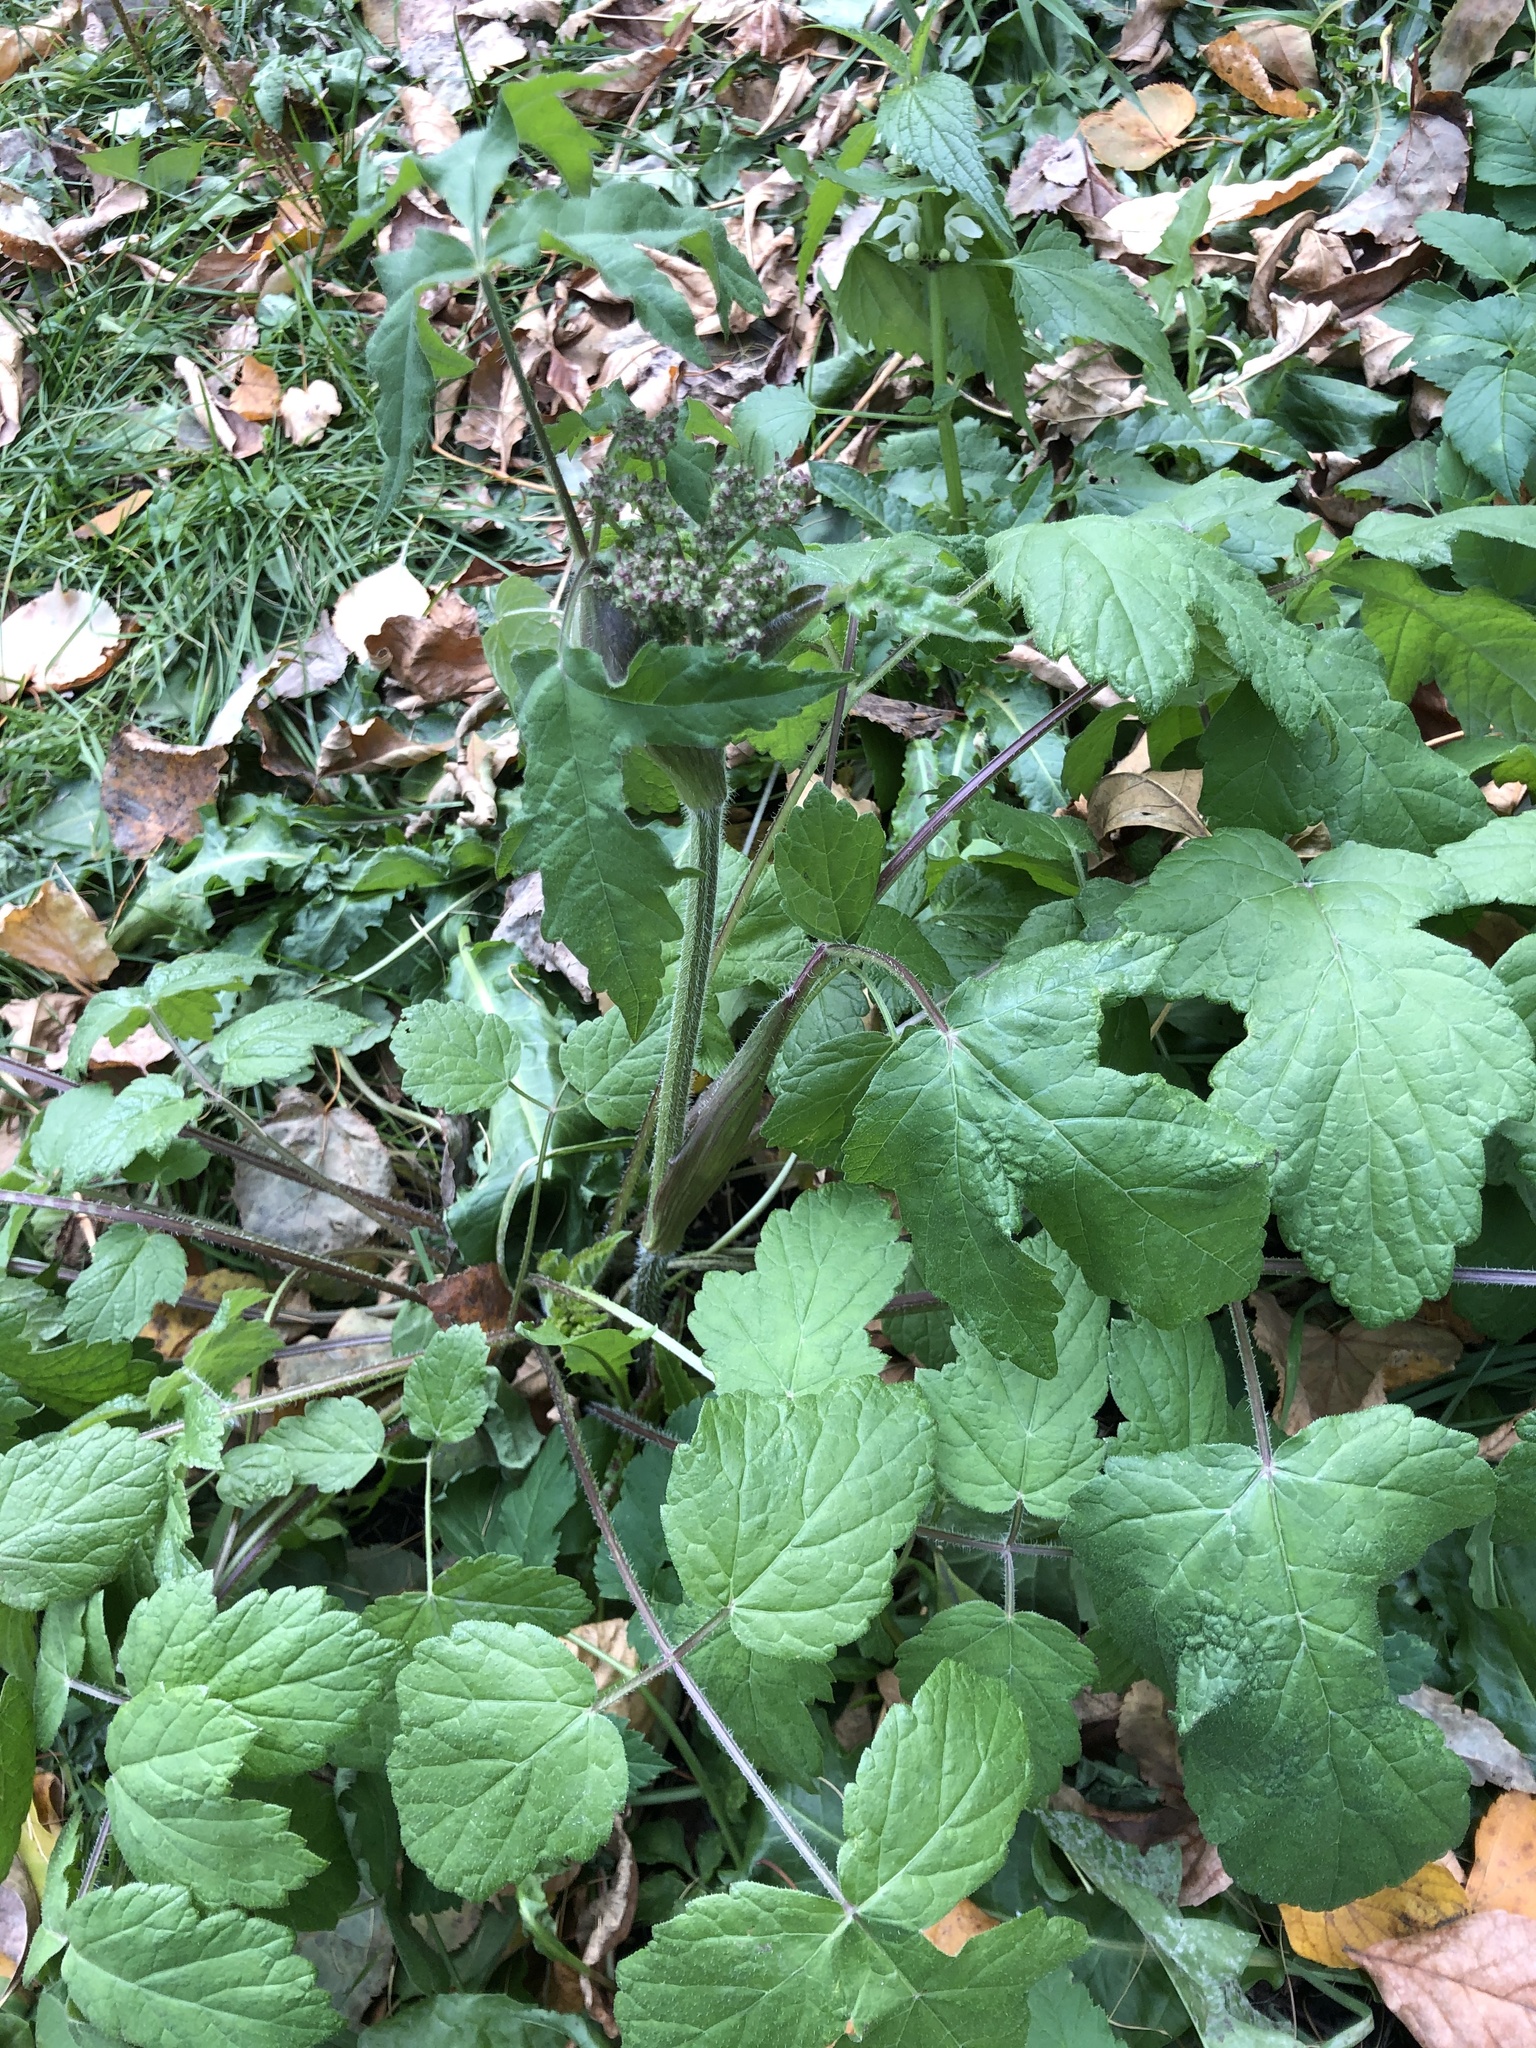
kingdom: Plantae
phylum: Tracheophyta
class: Magnoliopsida
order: Apiales
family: Apiaceae
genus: Heracleum
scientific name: Heracleum sphondylium
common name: Hogweed
